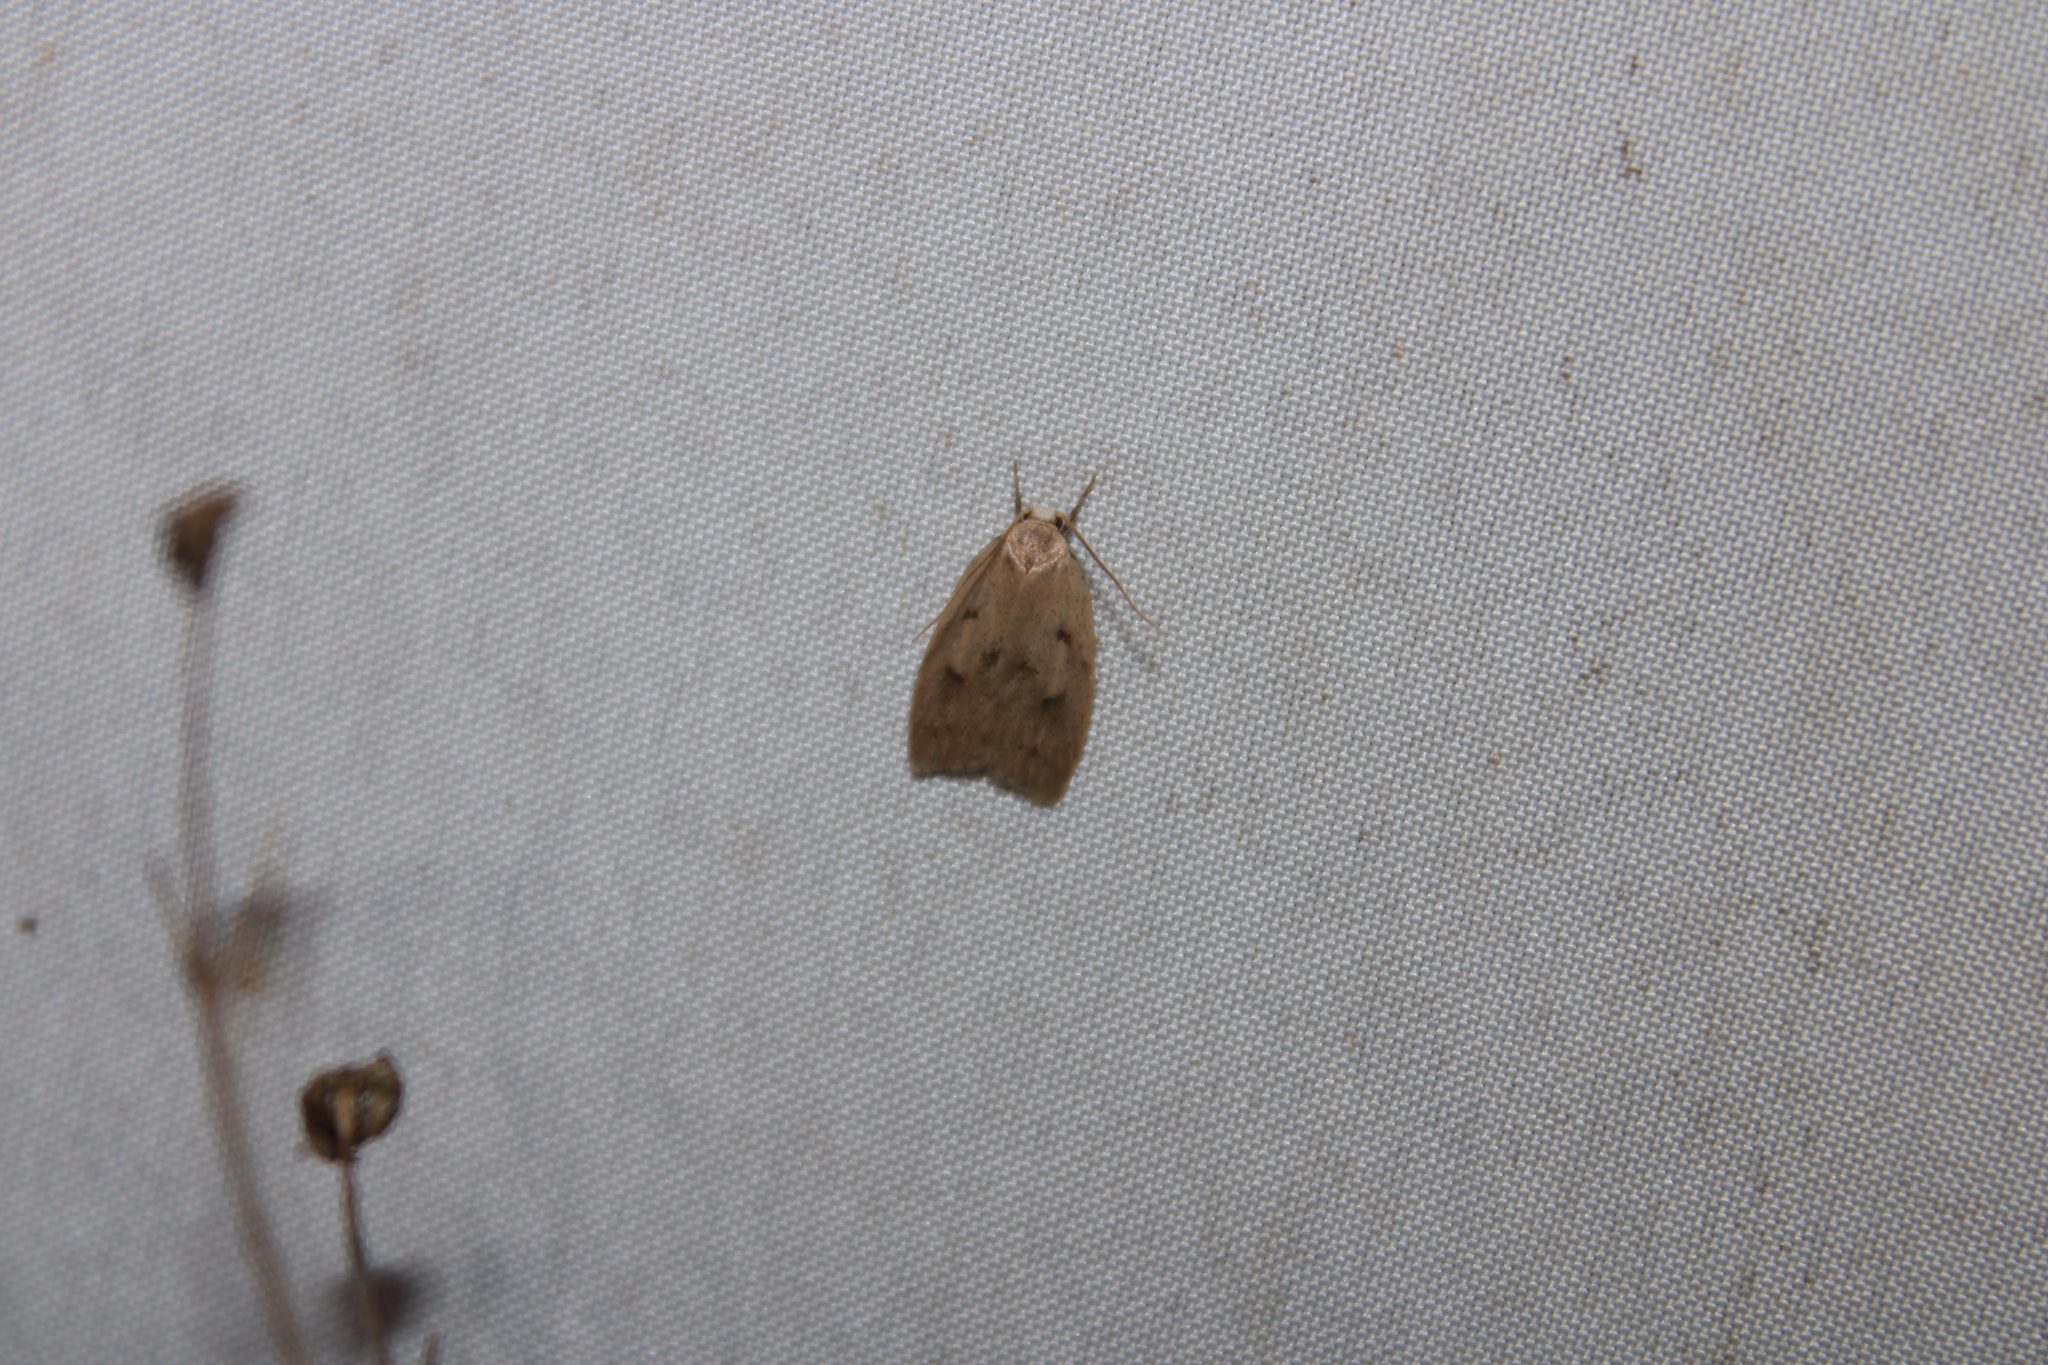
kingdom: Animalia
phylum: Arthropoda
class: Insecta
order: Lepidoptera
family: Peleopodidae
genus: Machimia
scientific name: Machimia tentoriferella
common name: Gold-striped leaftier moth
